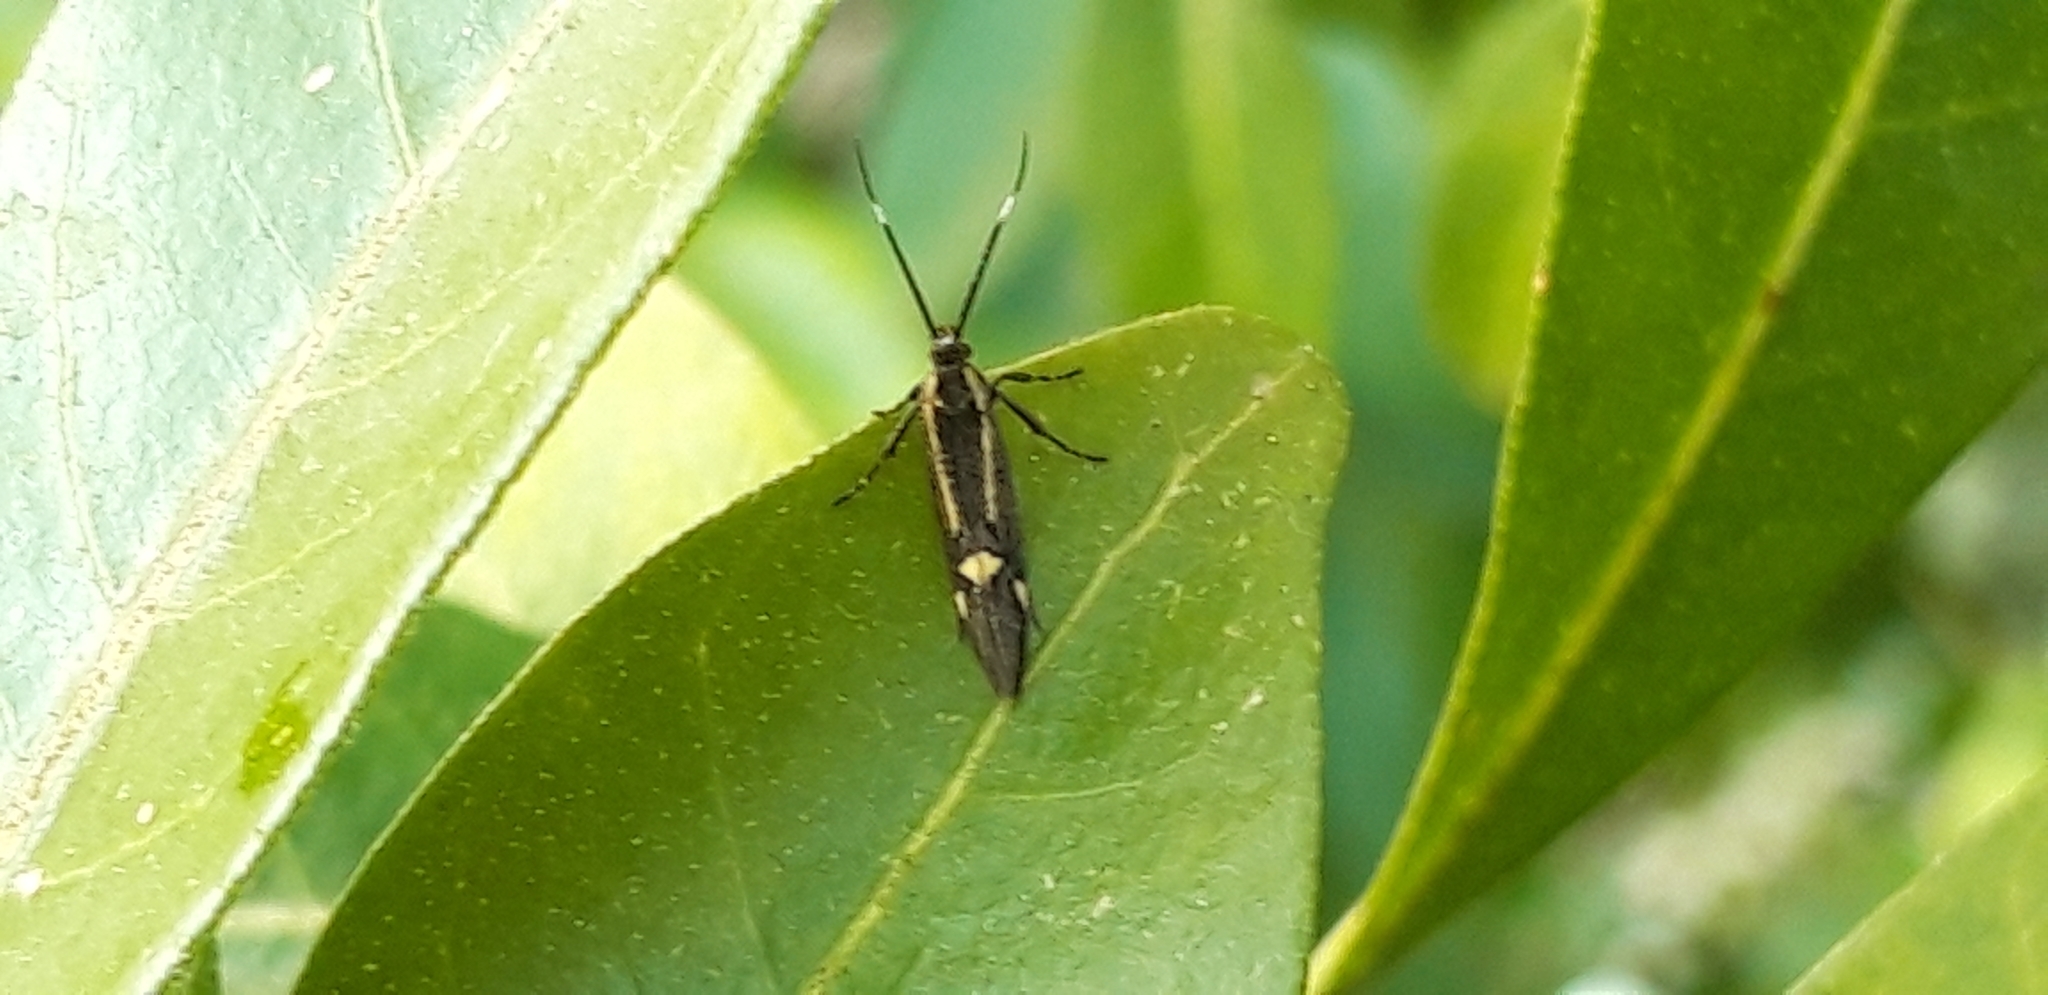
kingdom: Animalia
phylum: Arthropoda
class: Insecta
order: Lepidoptera
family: Oecophoridae
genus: Dafa
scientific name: Dafa Esperia sulphurella
